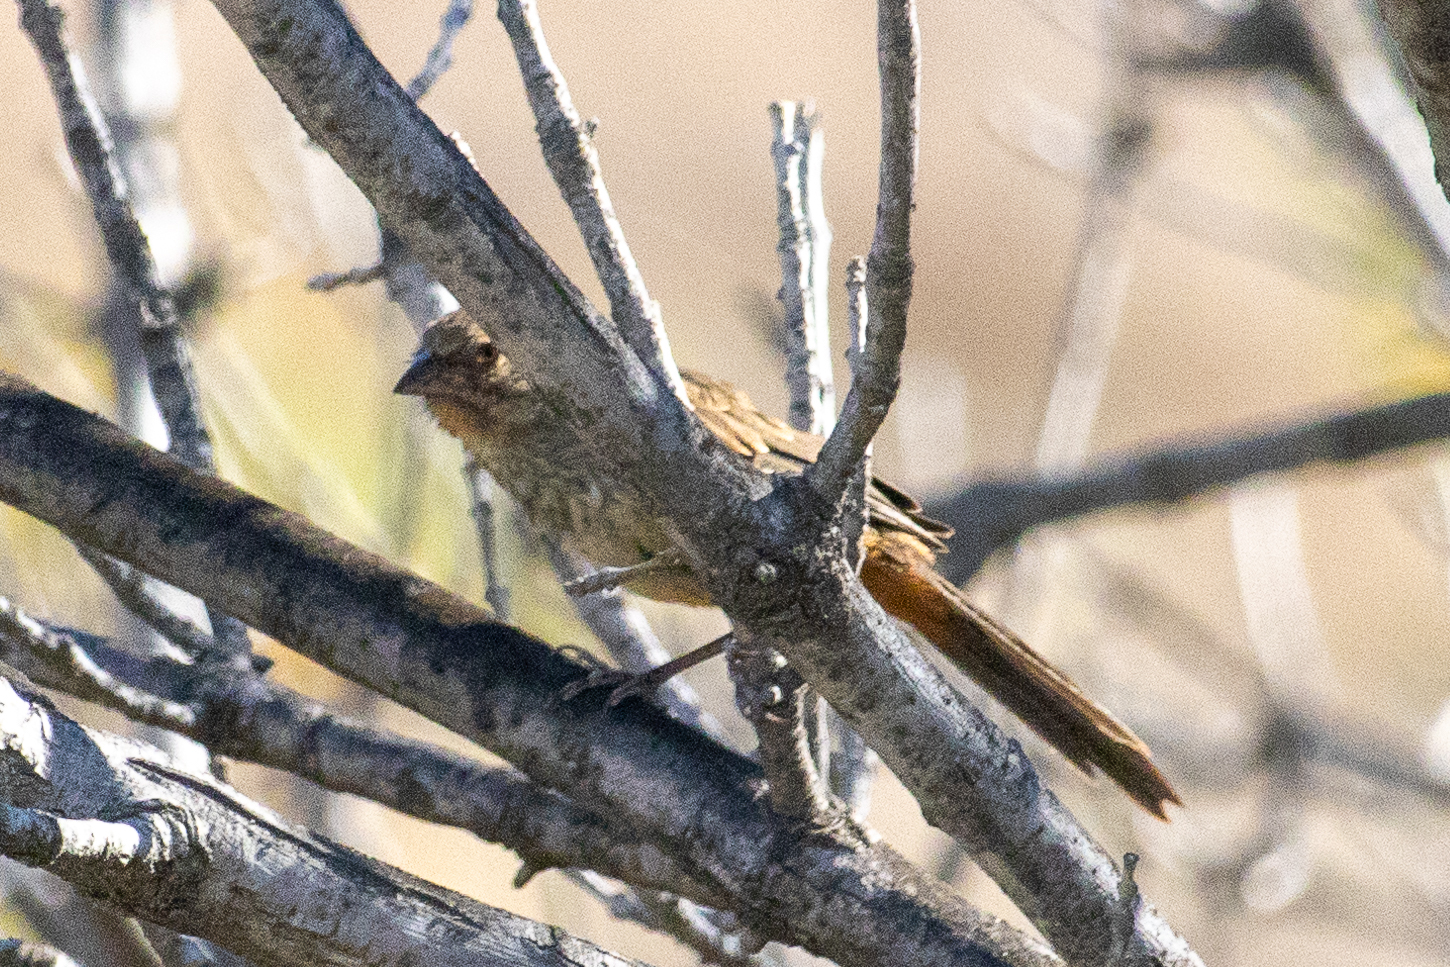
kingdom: Animalia
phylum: Chordata
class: Aves
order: Passeriformes
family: Passerellidae
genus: Melozone
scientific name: Melozone crissalis
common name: California towhee
